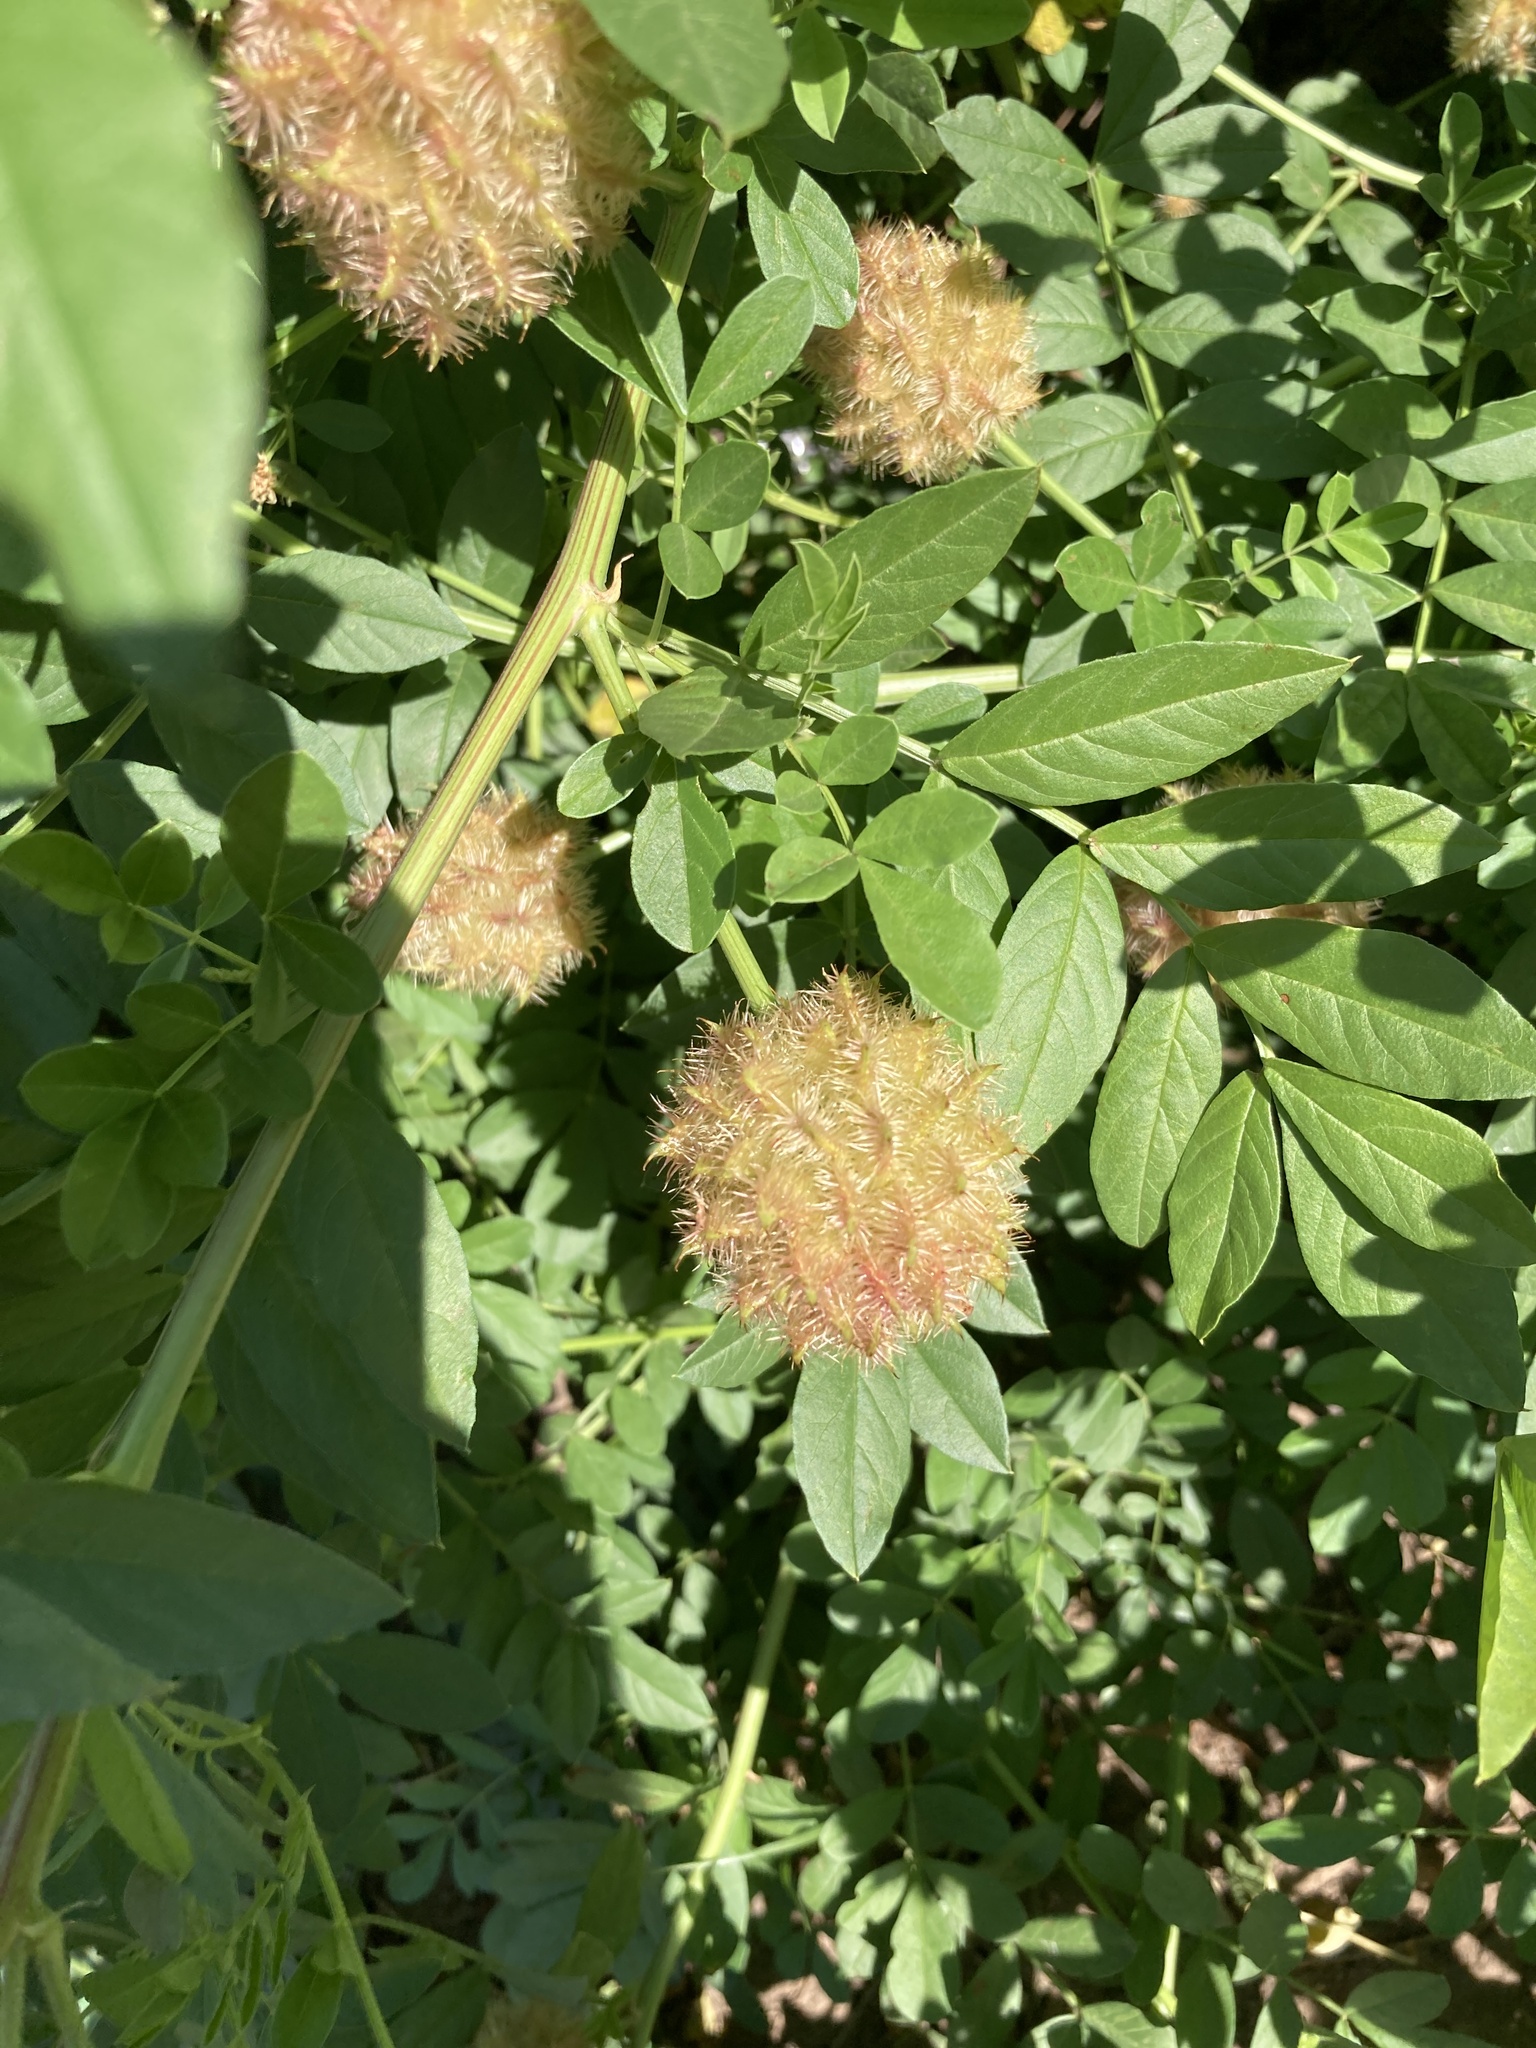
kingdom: Plantae
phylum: Tracheophyta
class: Magnoliopsida
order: Fabales
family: Fabaceae
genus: Glycyrrhiza
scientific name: Glycyrrhiza echinata
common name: German liquorice
